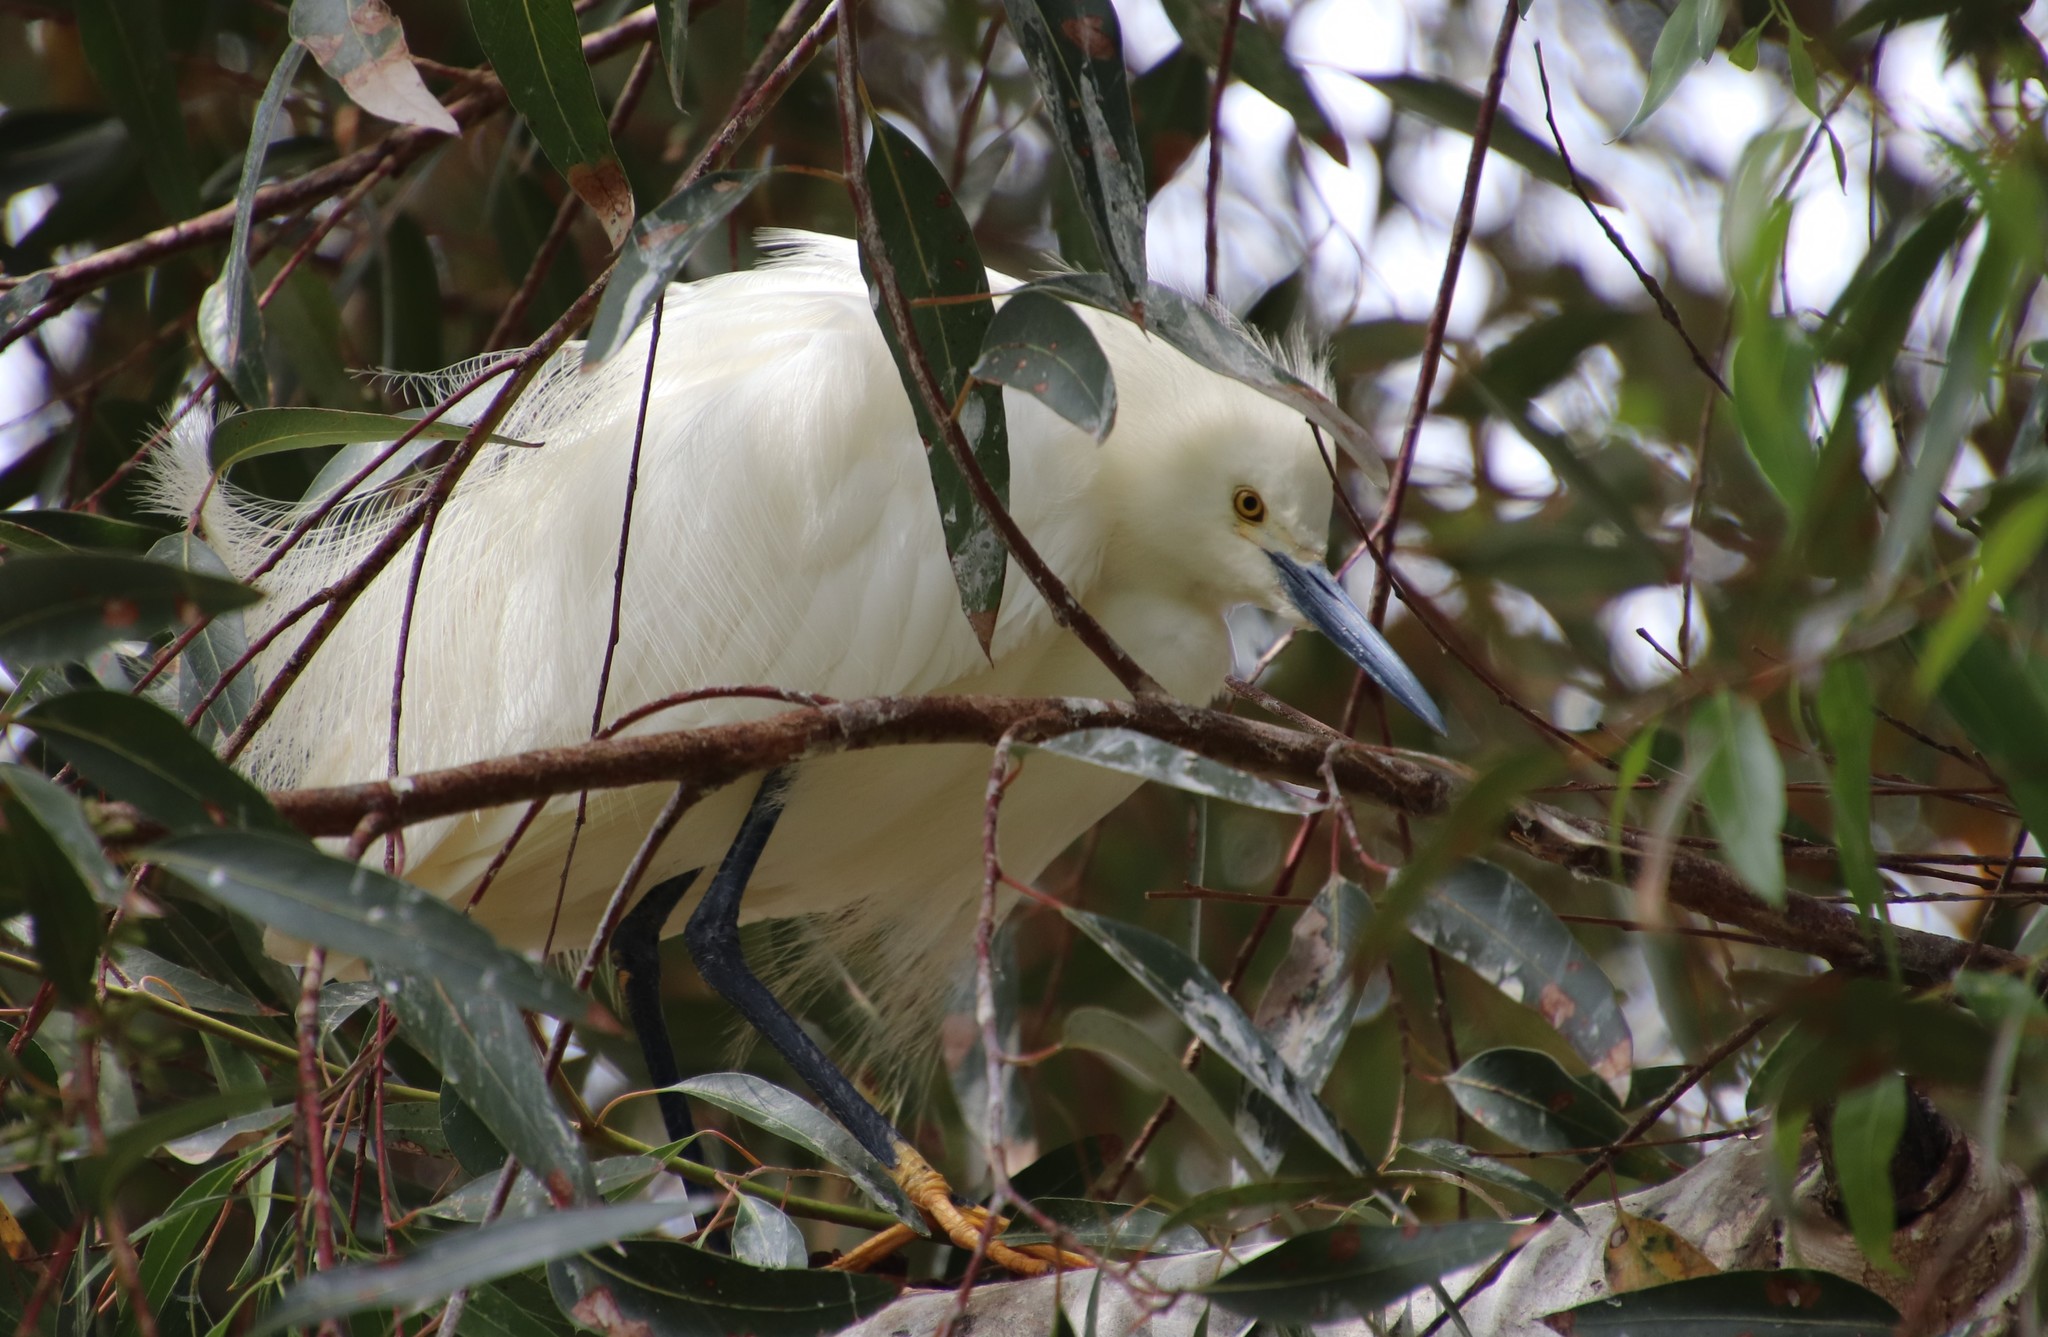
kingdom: Animalia
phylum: Chordata
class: Aves
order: Pelecaniformes
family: Ardeidae
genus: Egretta
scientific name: Egretta thula
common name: Snowy egret
